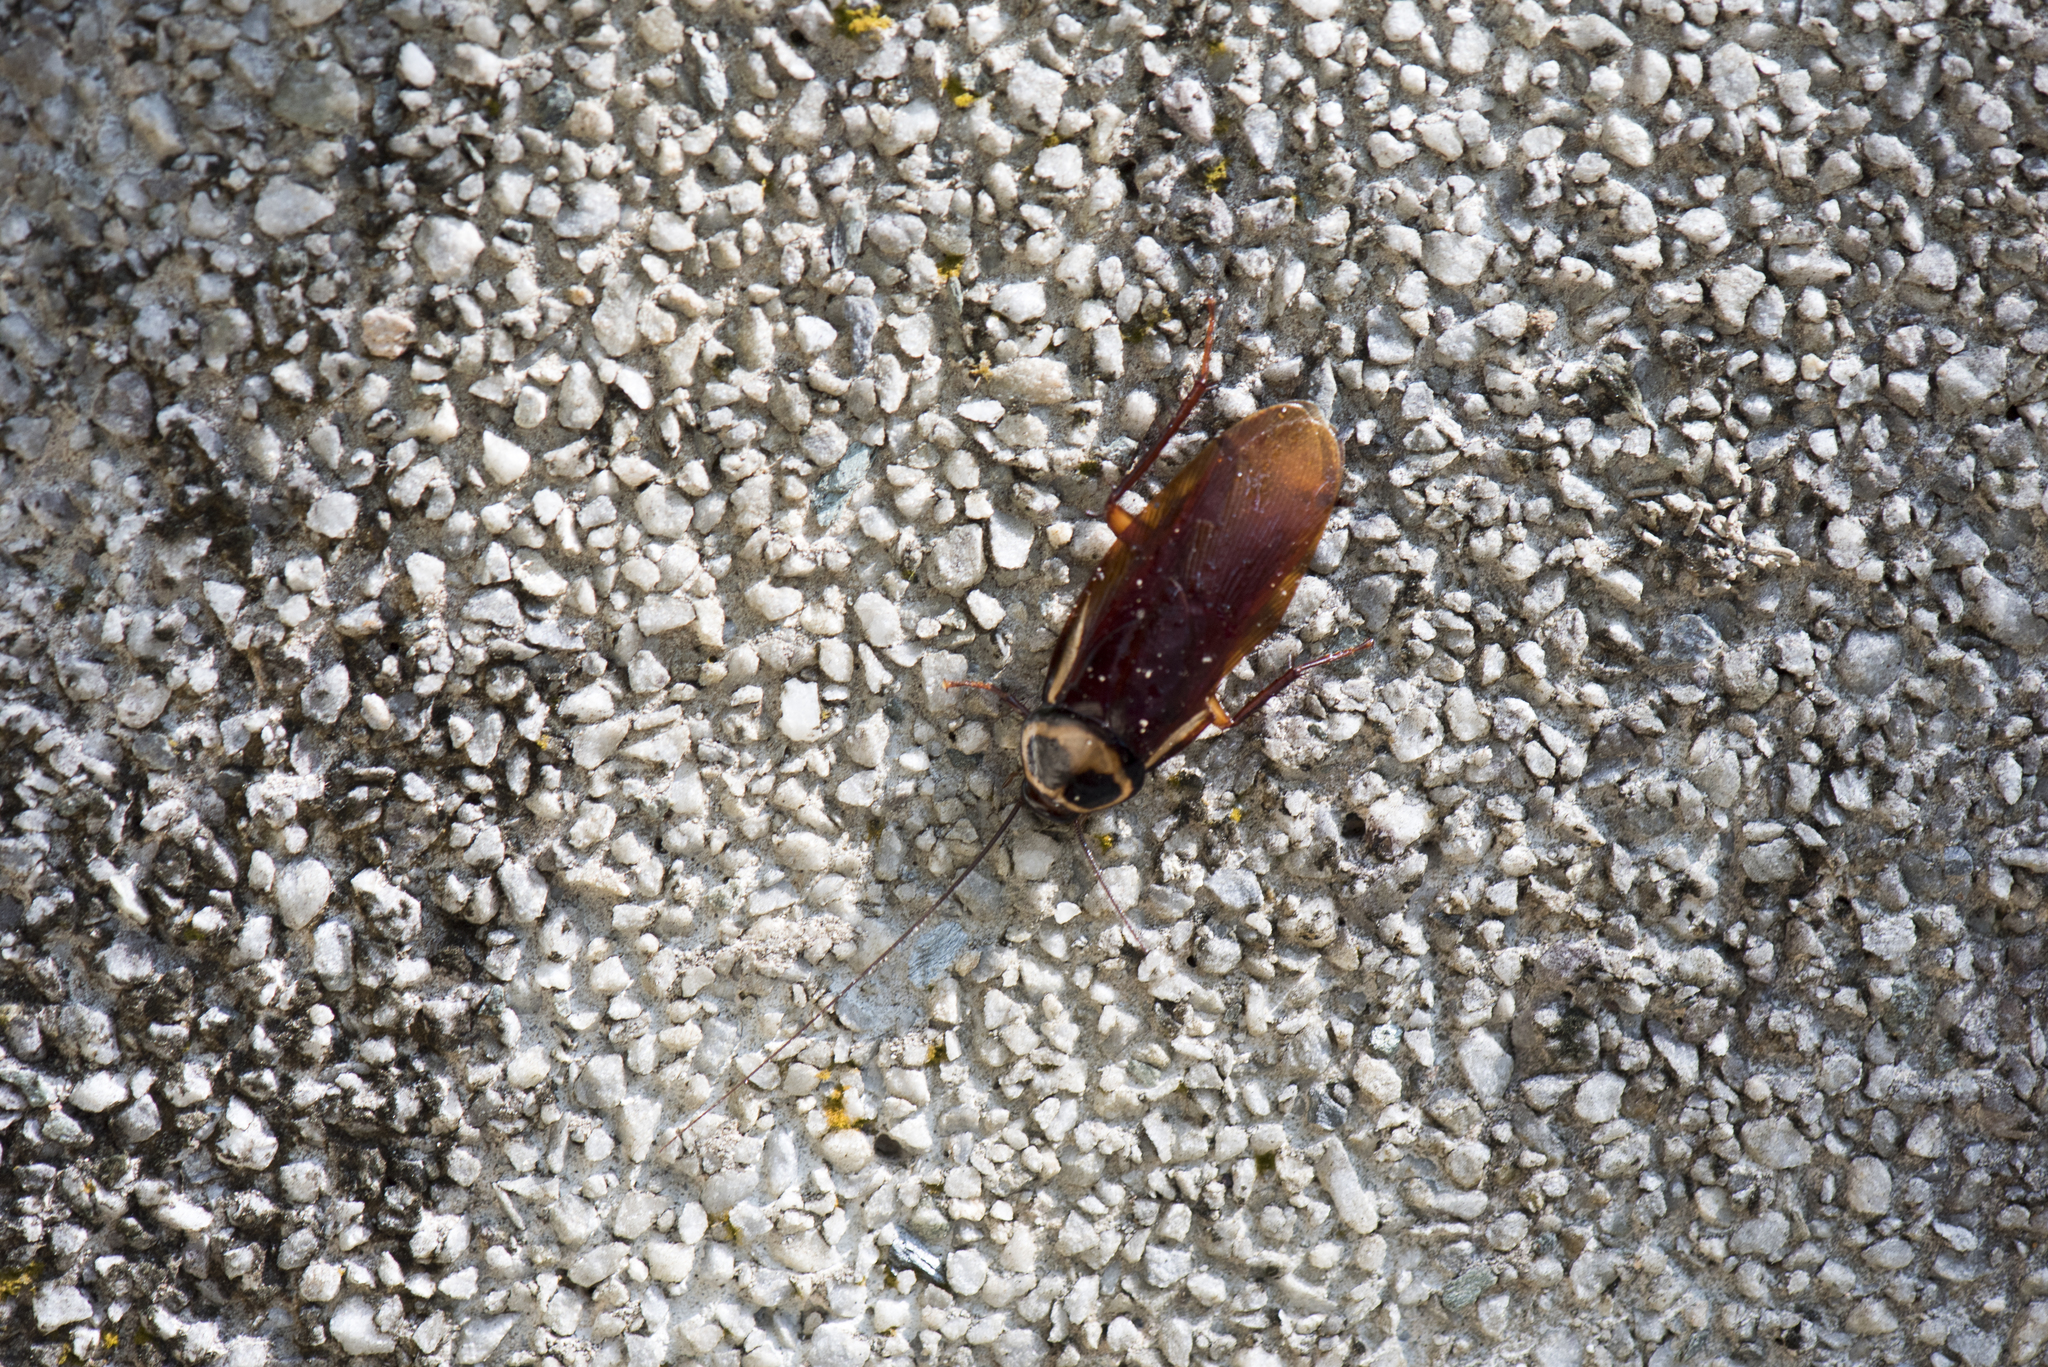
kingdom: Animalia
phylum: Arthropoda
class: Insecta
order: Blattodea
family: Blattidae
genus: Periplaneta
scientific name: Periplaneta australasiae
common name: Australian cockroach
